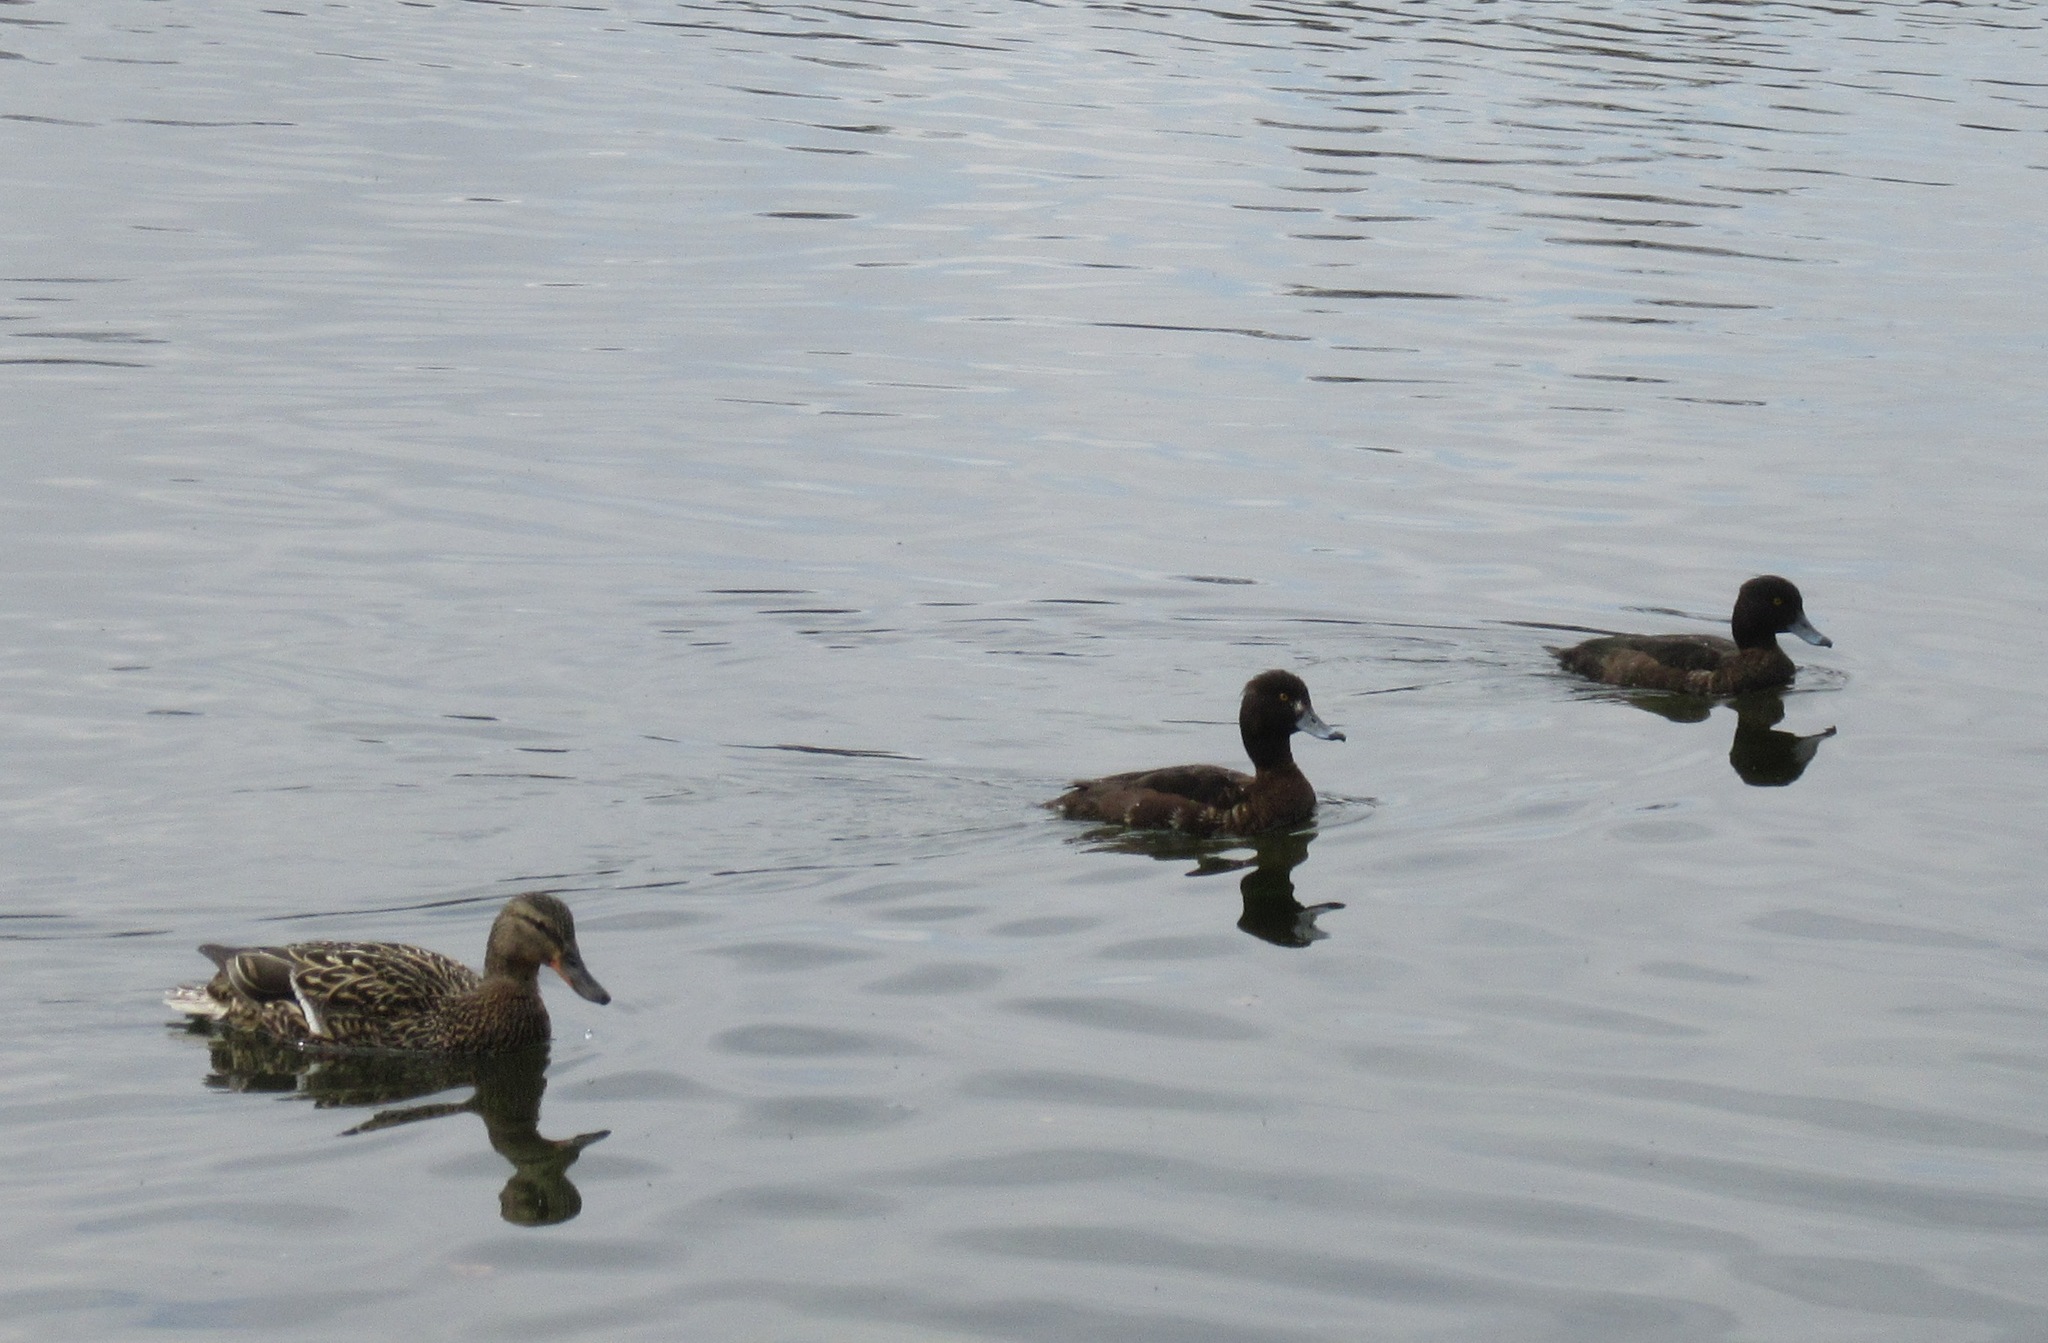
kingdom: Animalia
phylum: Chordata
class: Aves
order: Anseriformes
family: Anatidae
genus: Aythya
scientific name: Aythya fuligula
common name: Tufted duck
